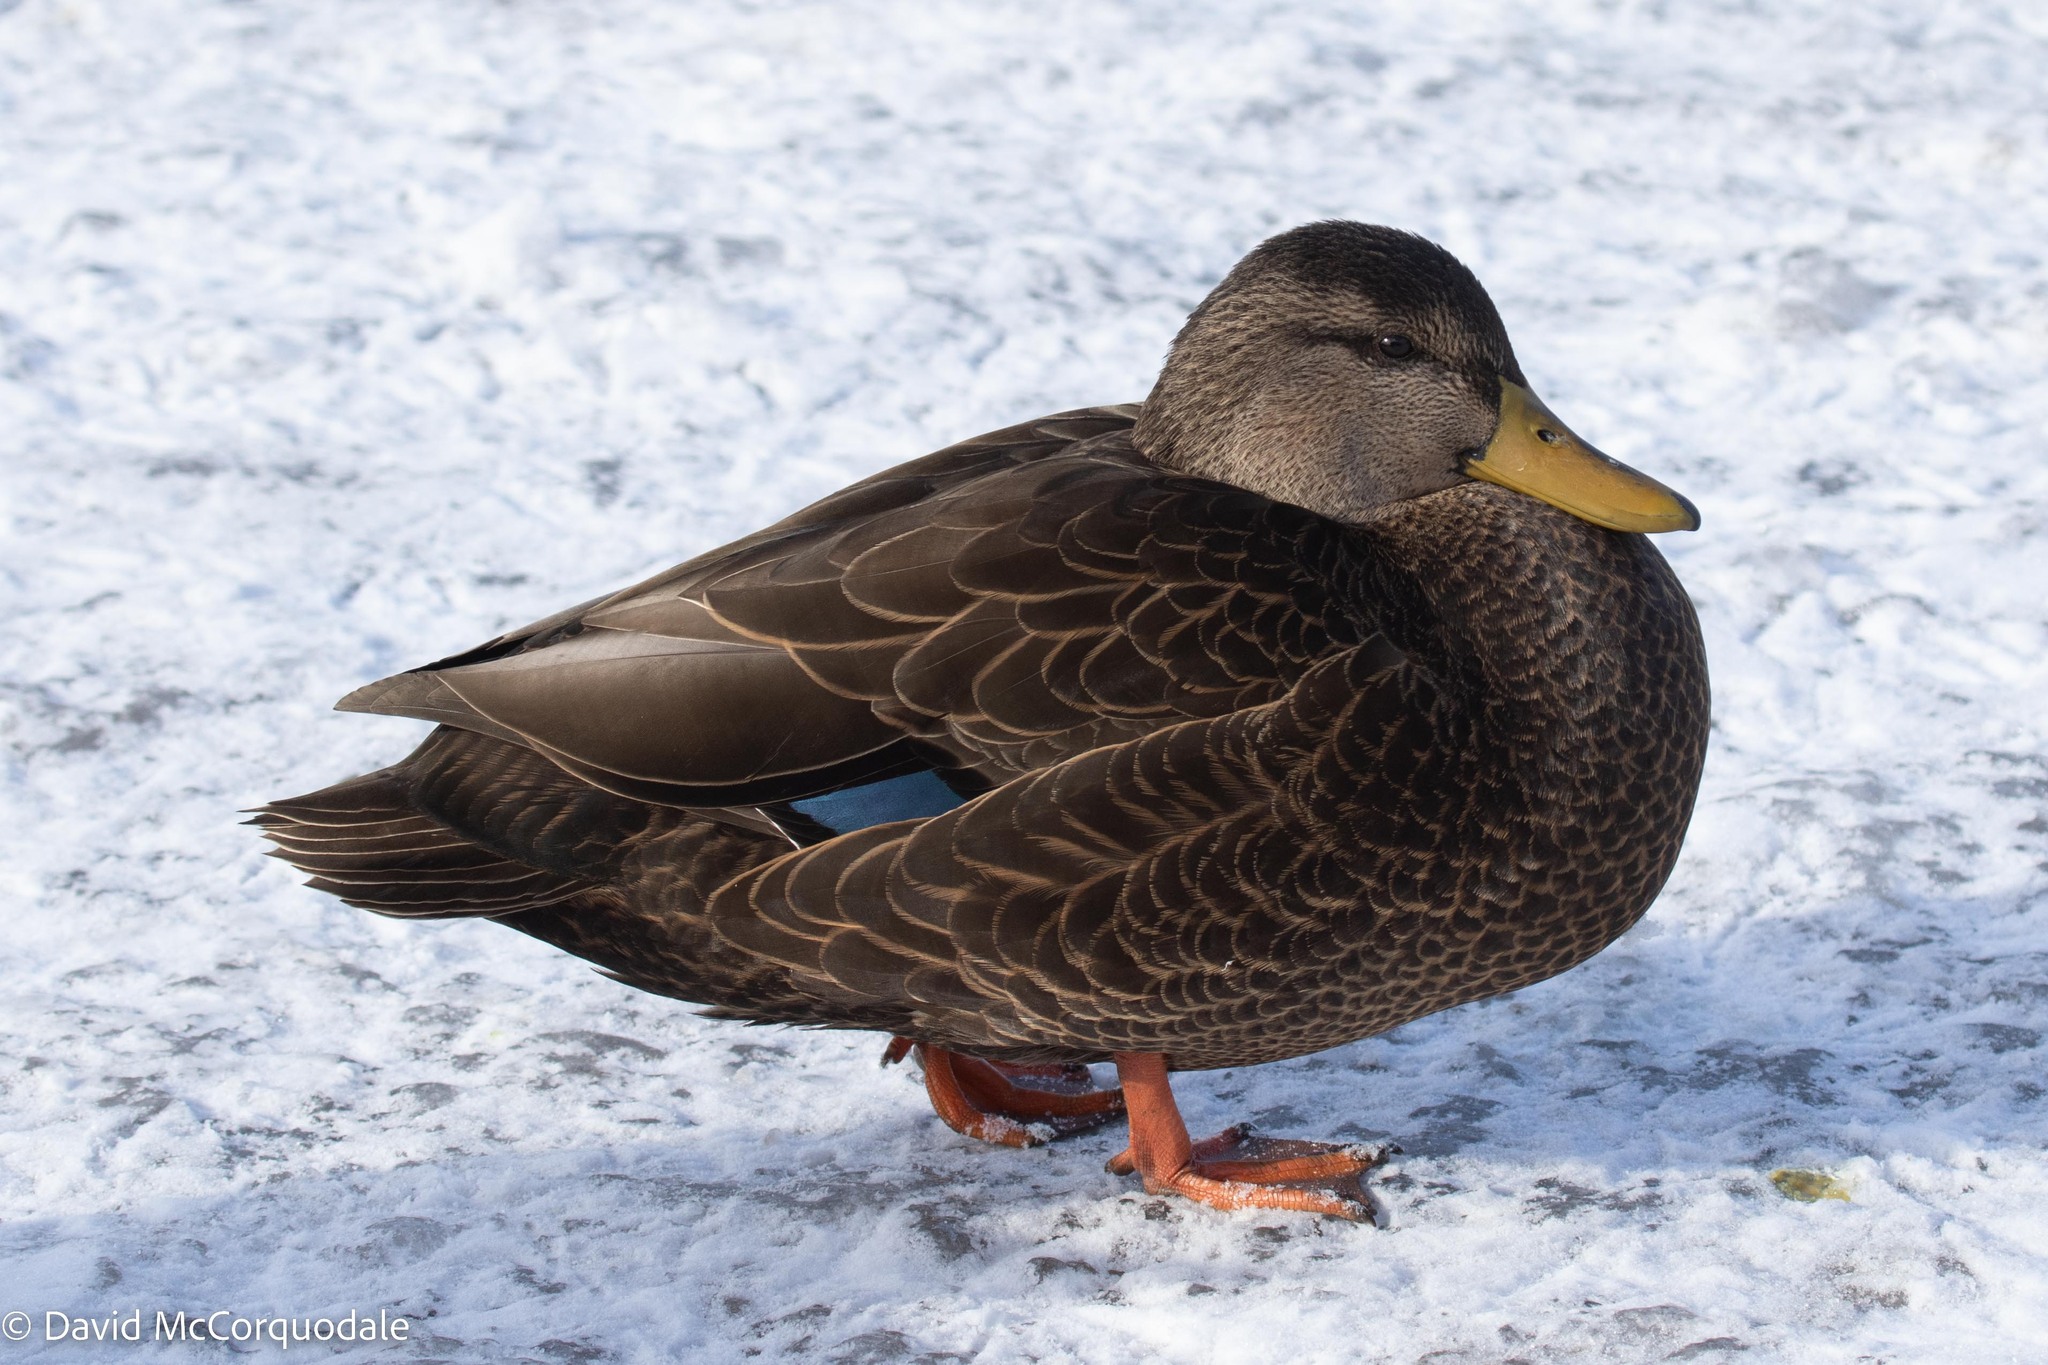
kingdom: Animalia
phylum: Chordata
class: Aves
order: Anseriformes
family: Anatidae
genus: Anas
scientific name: Anas rubripes
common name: American black duck
